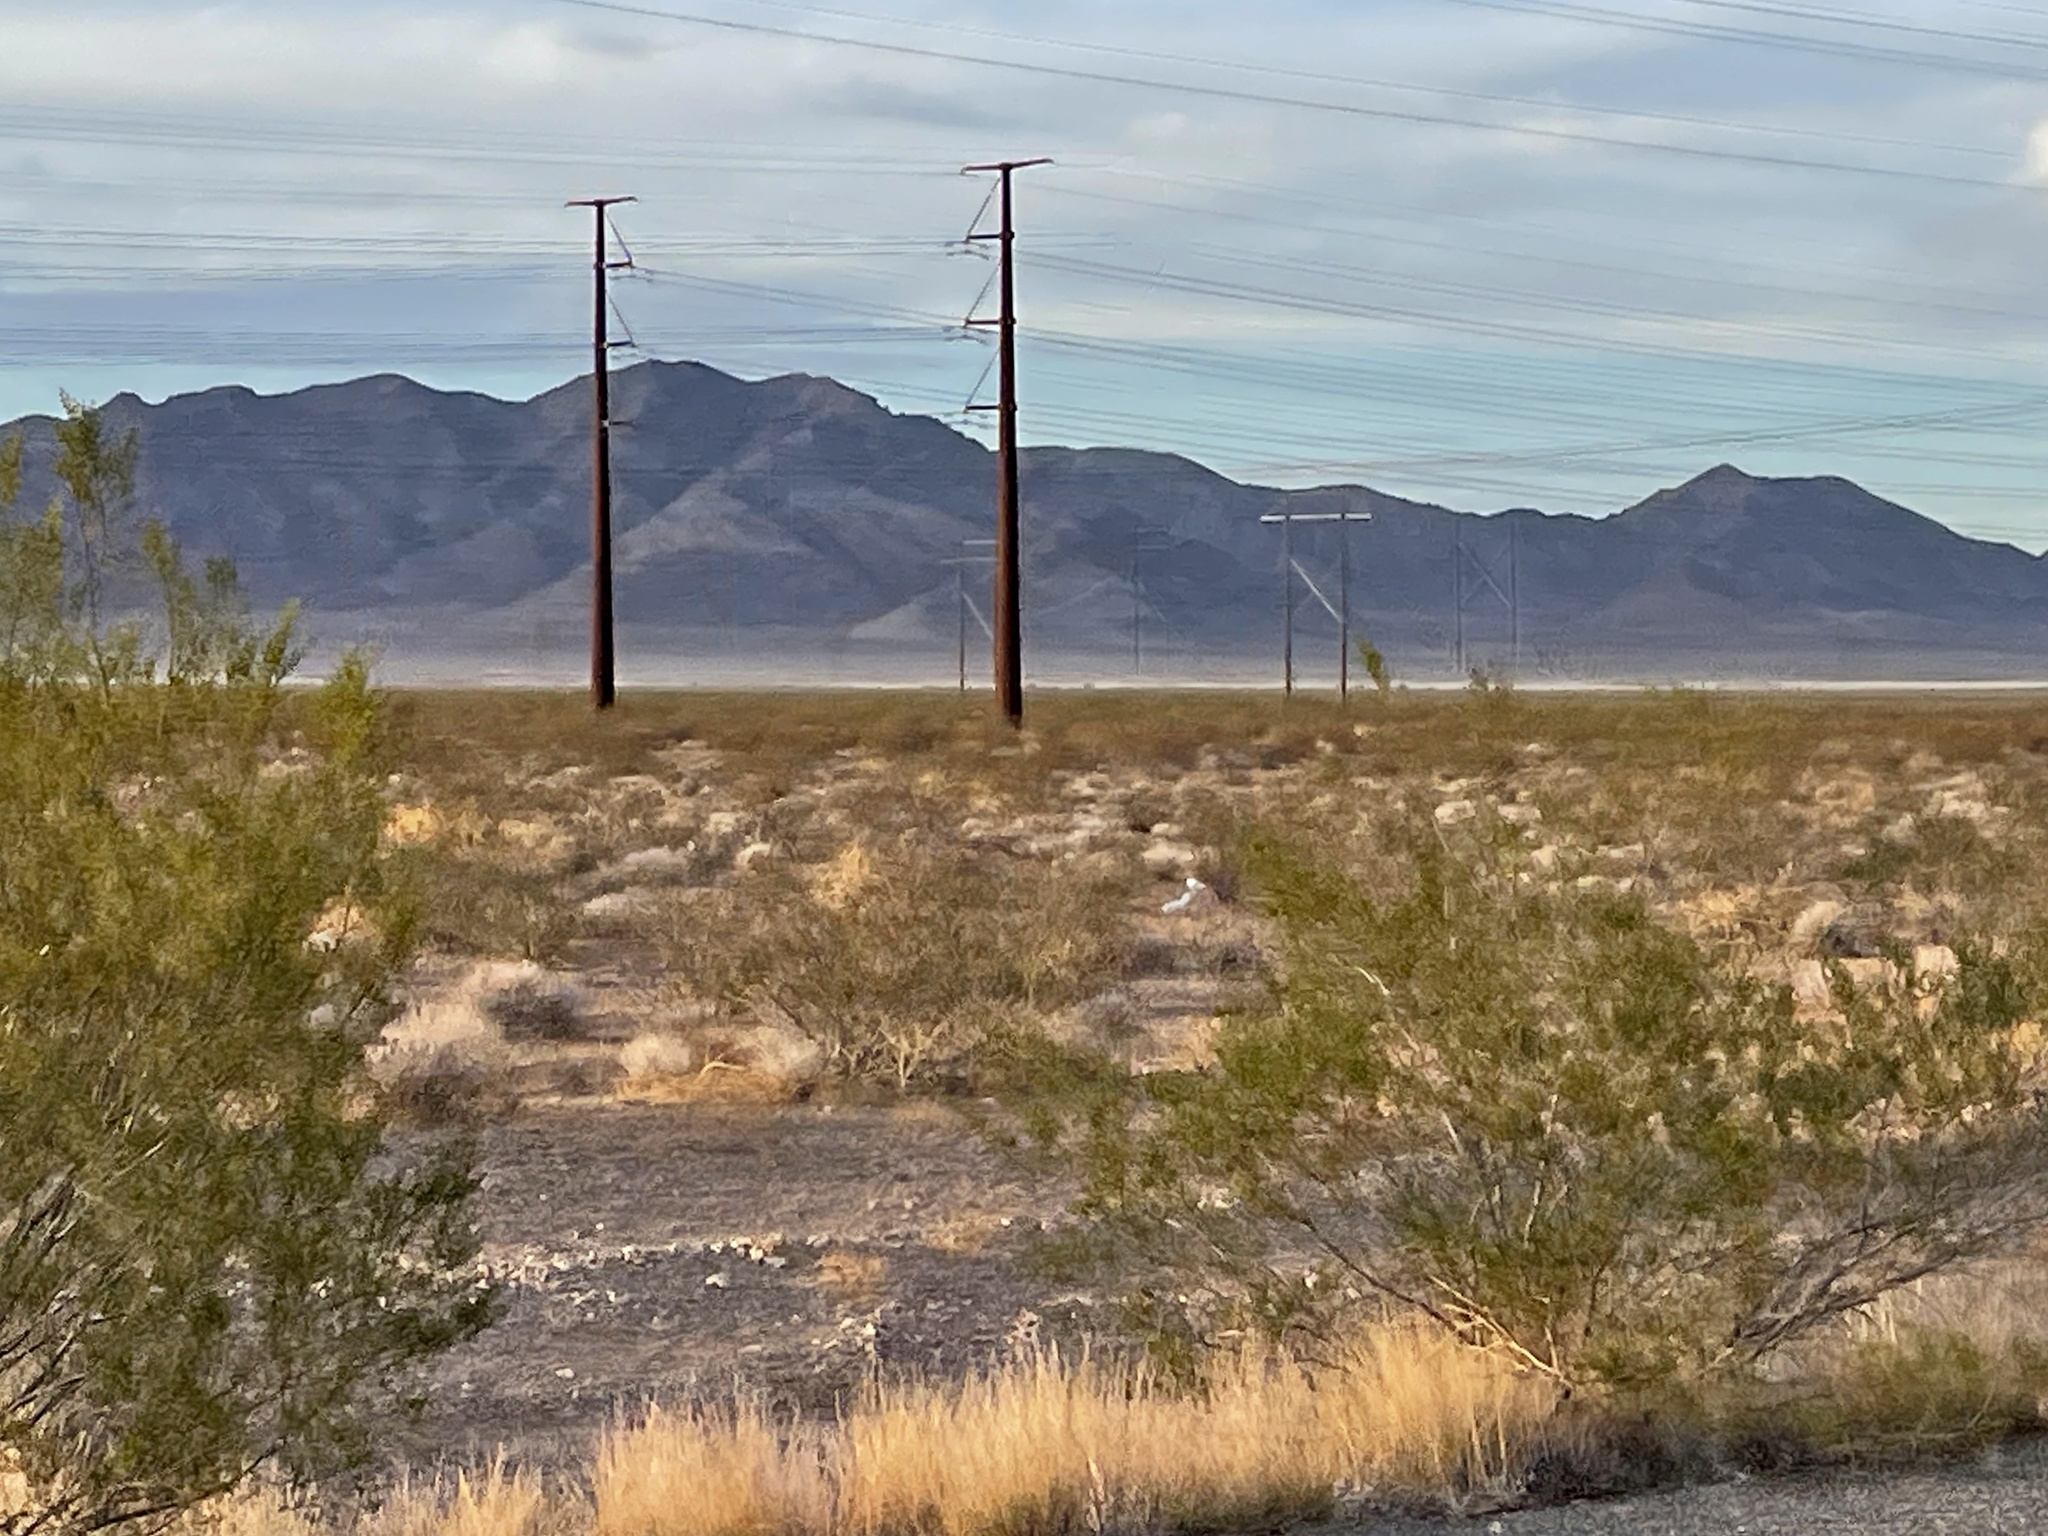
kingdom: Plantae
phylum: Tracheophyta
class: Magnoliopsida
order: Zygophyllales
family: Zygophyllaceae
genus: Larrea
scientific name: Larrea tridentata
